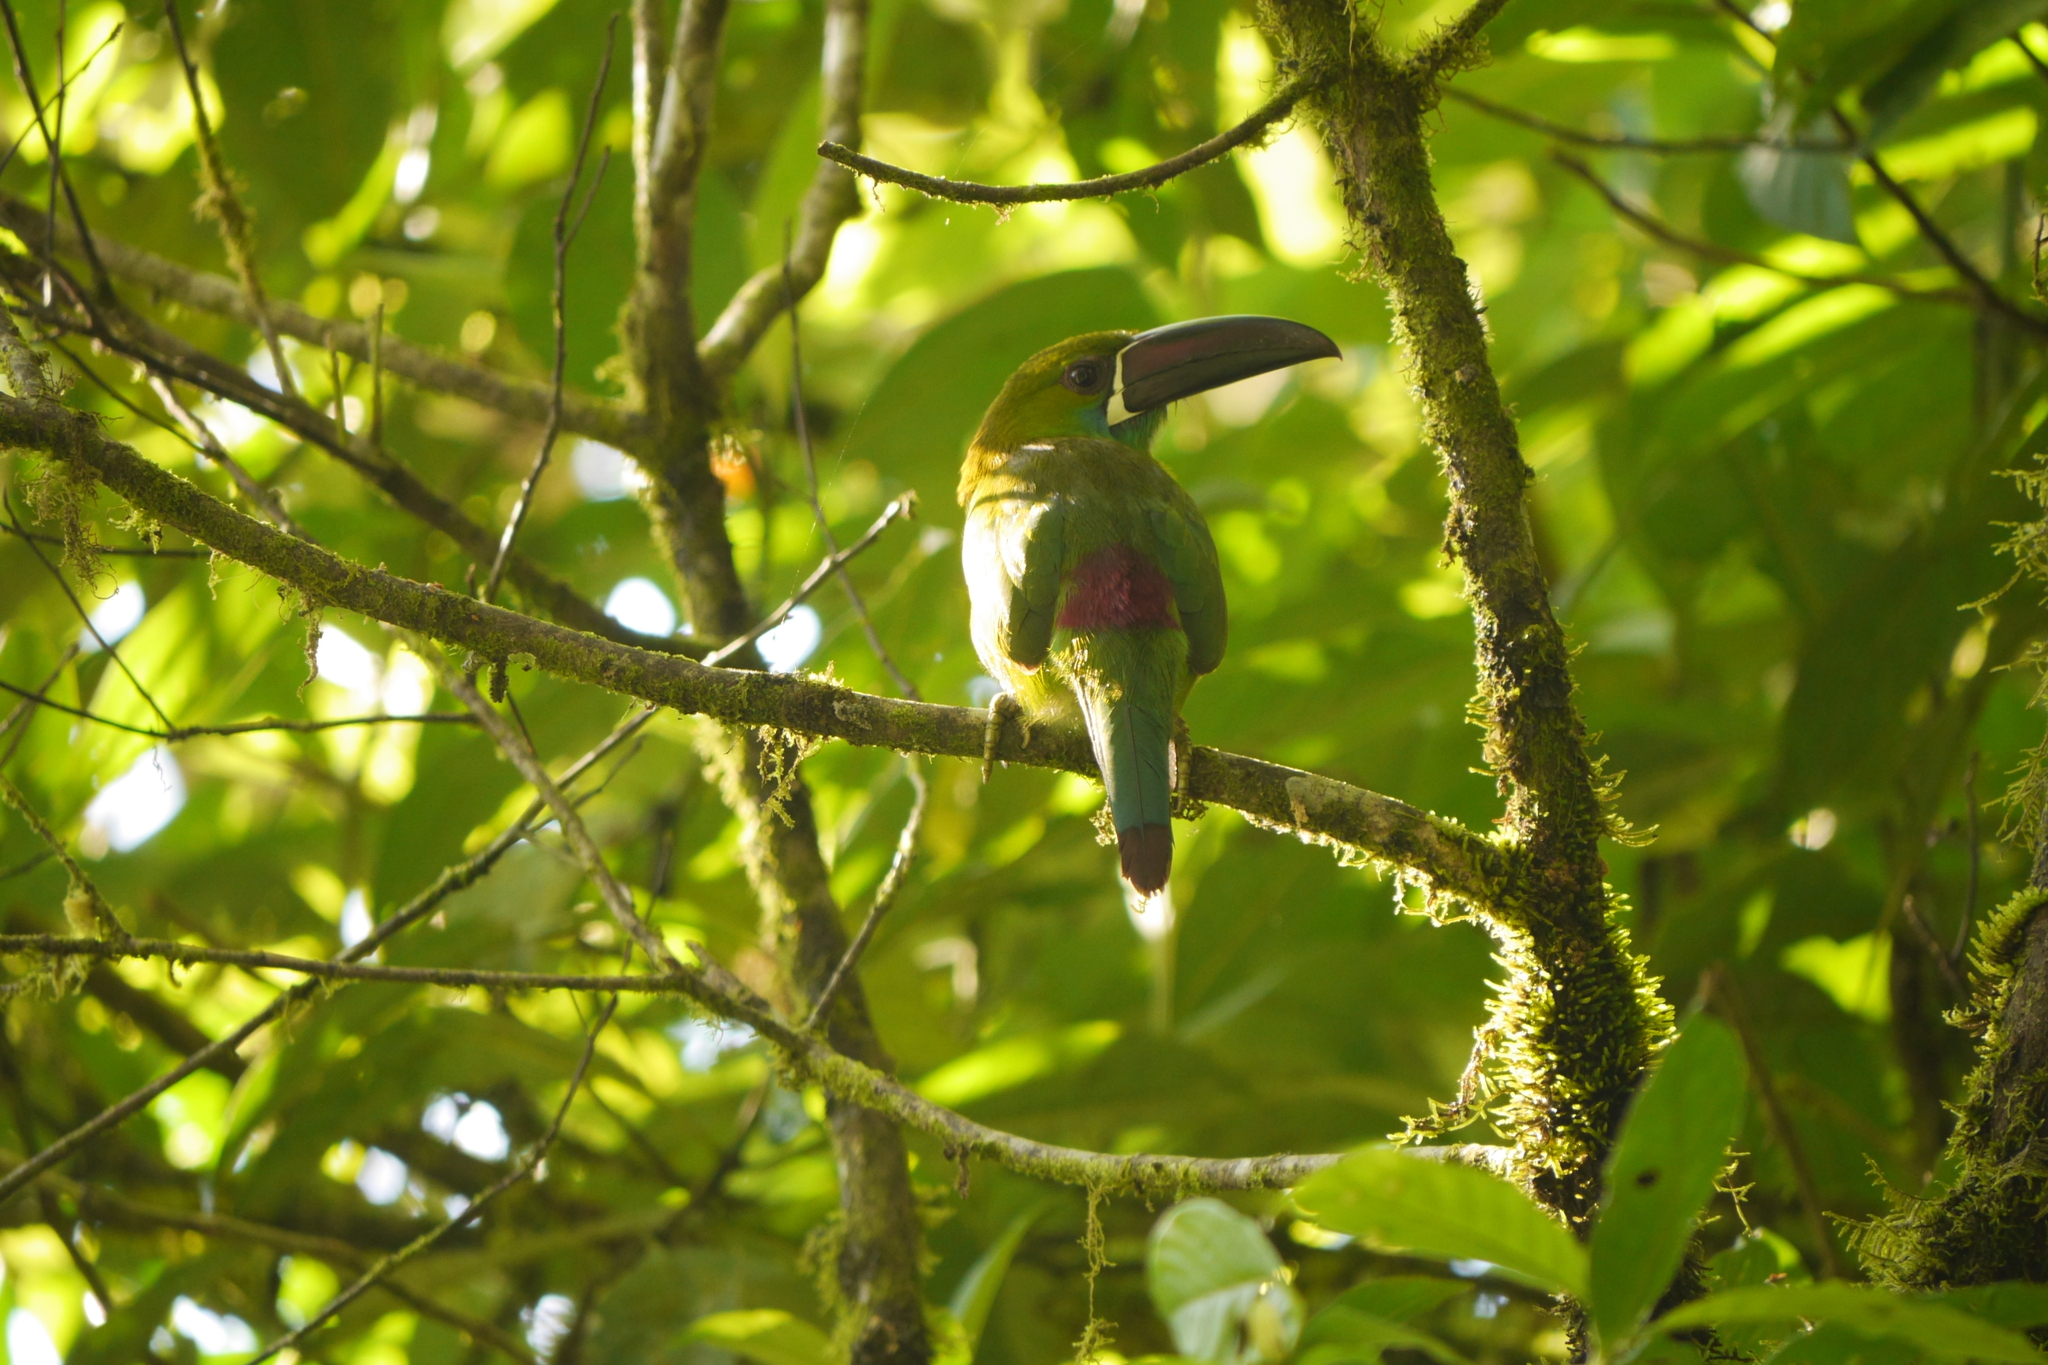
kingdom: Animalia
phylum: Chordata
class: Aves
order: Piciformes
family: Ramphastidae
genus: Aulacorhynchus
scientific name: Aulacorhynchus haematopygus
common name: Crimson-rumped toucanet
